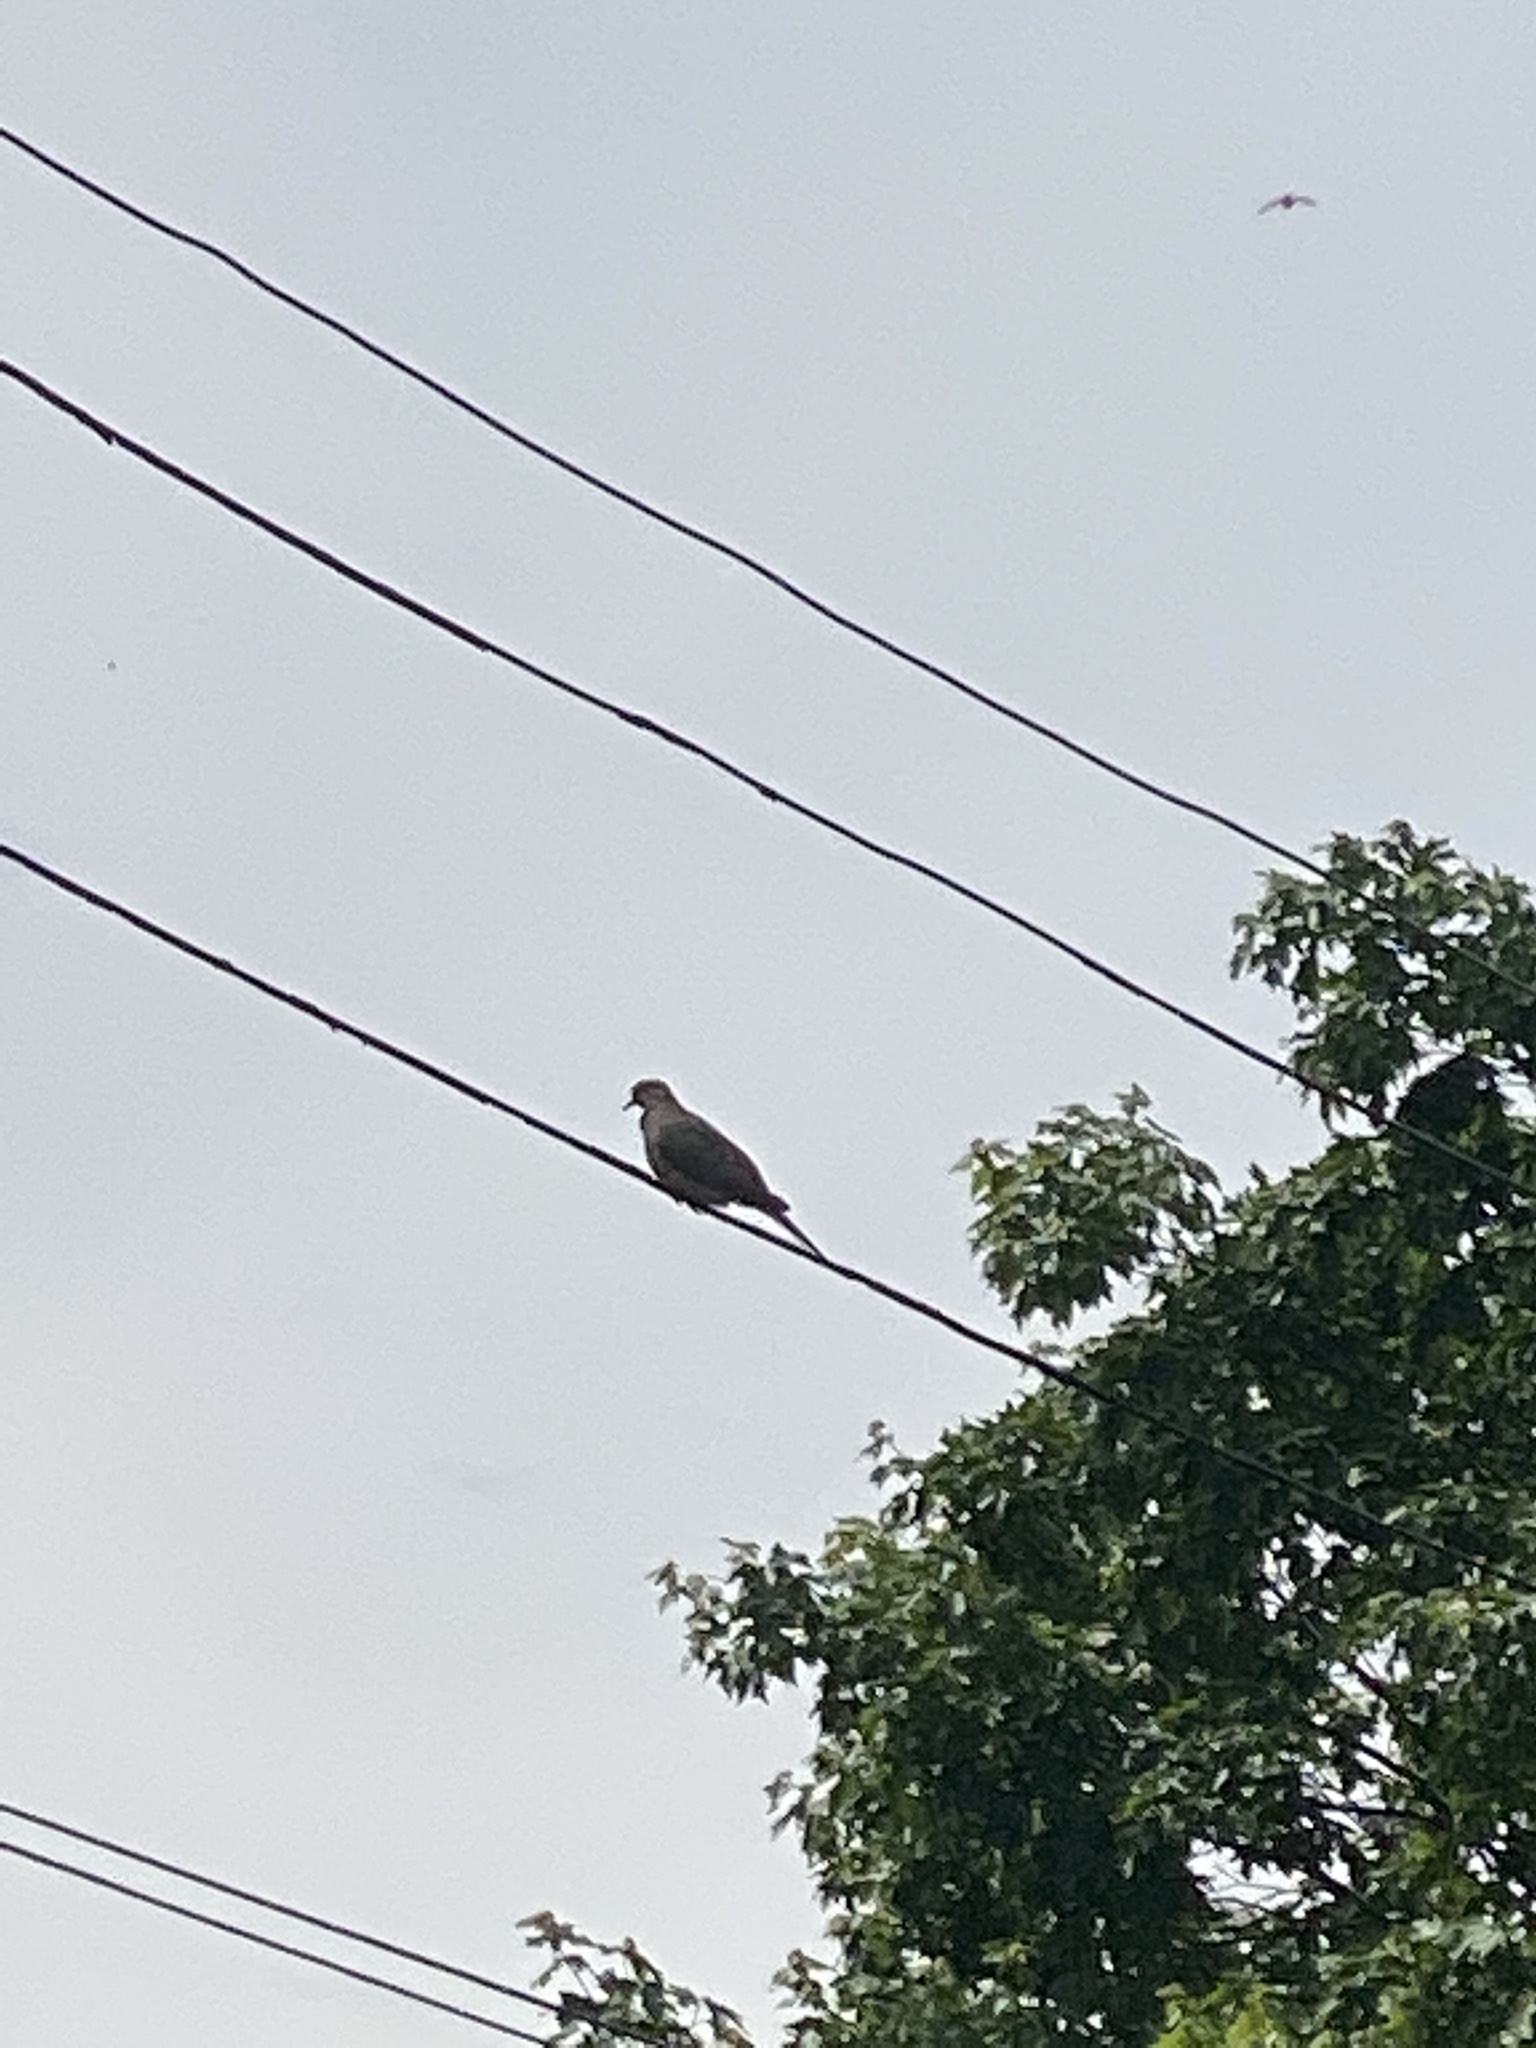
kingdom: Animalia
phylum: Chordata
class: Aves
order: Columbiformes
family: Columbidae
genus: Zenaida
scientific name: Zenaida macroura
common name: Mourning dove
